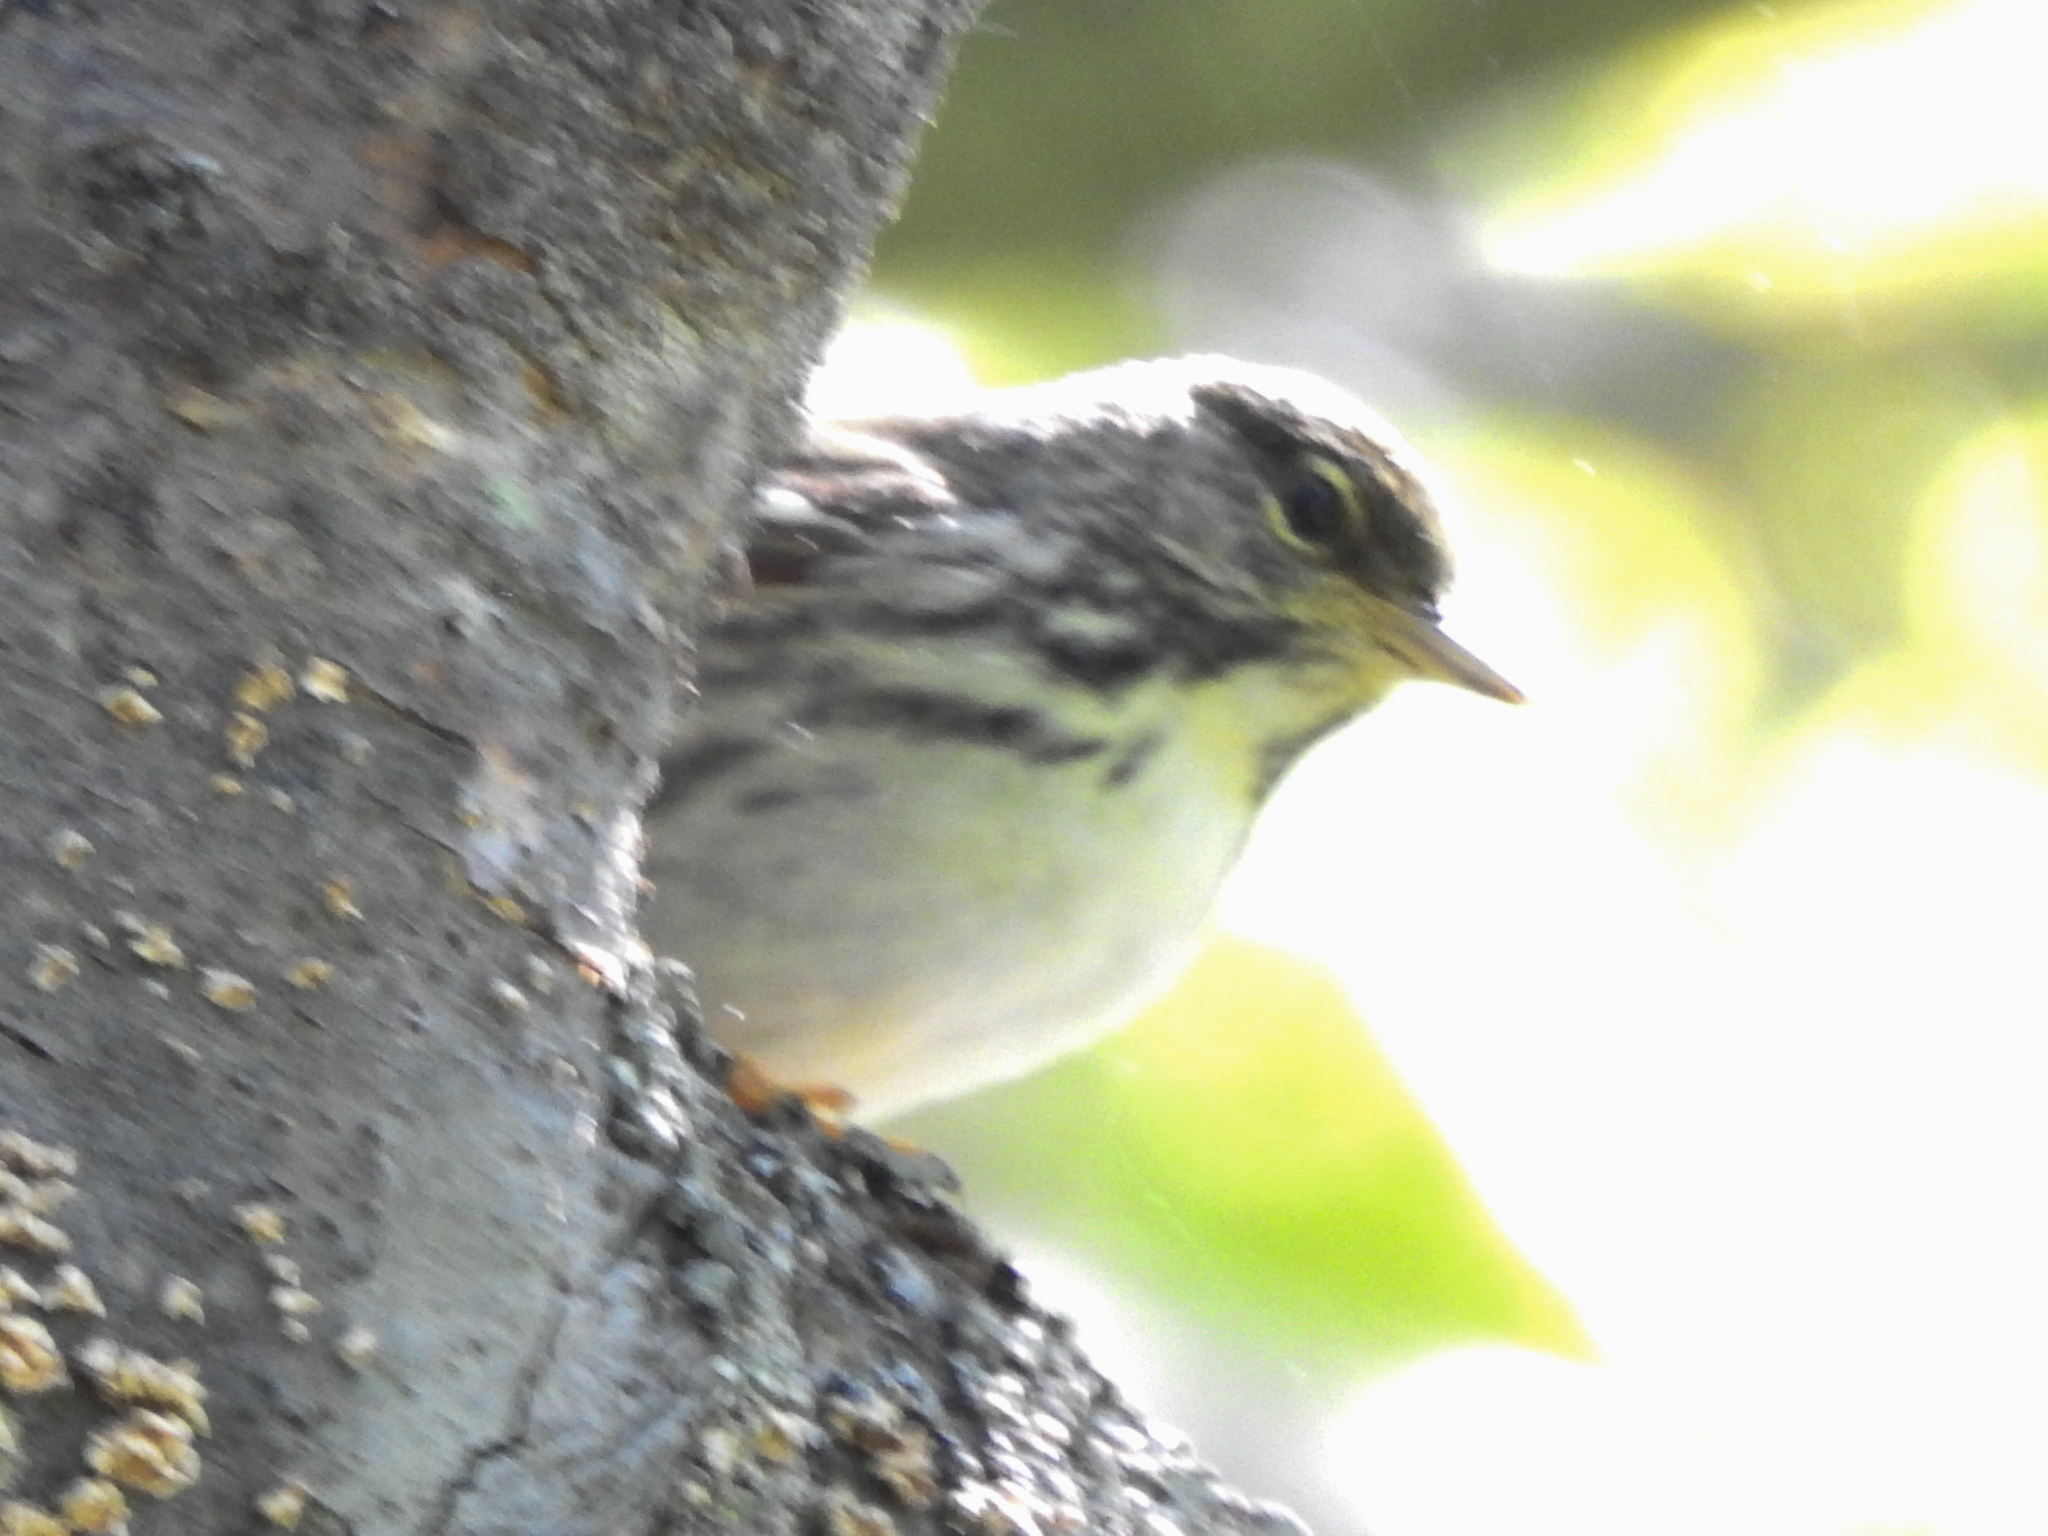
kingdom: Animalia
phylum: Chordata
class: Aves
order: Passeriformes
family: Parulidae
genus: Setophaga
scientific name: Setophaga striata
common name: Blackpoll warbler
